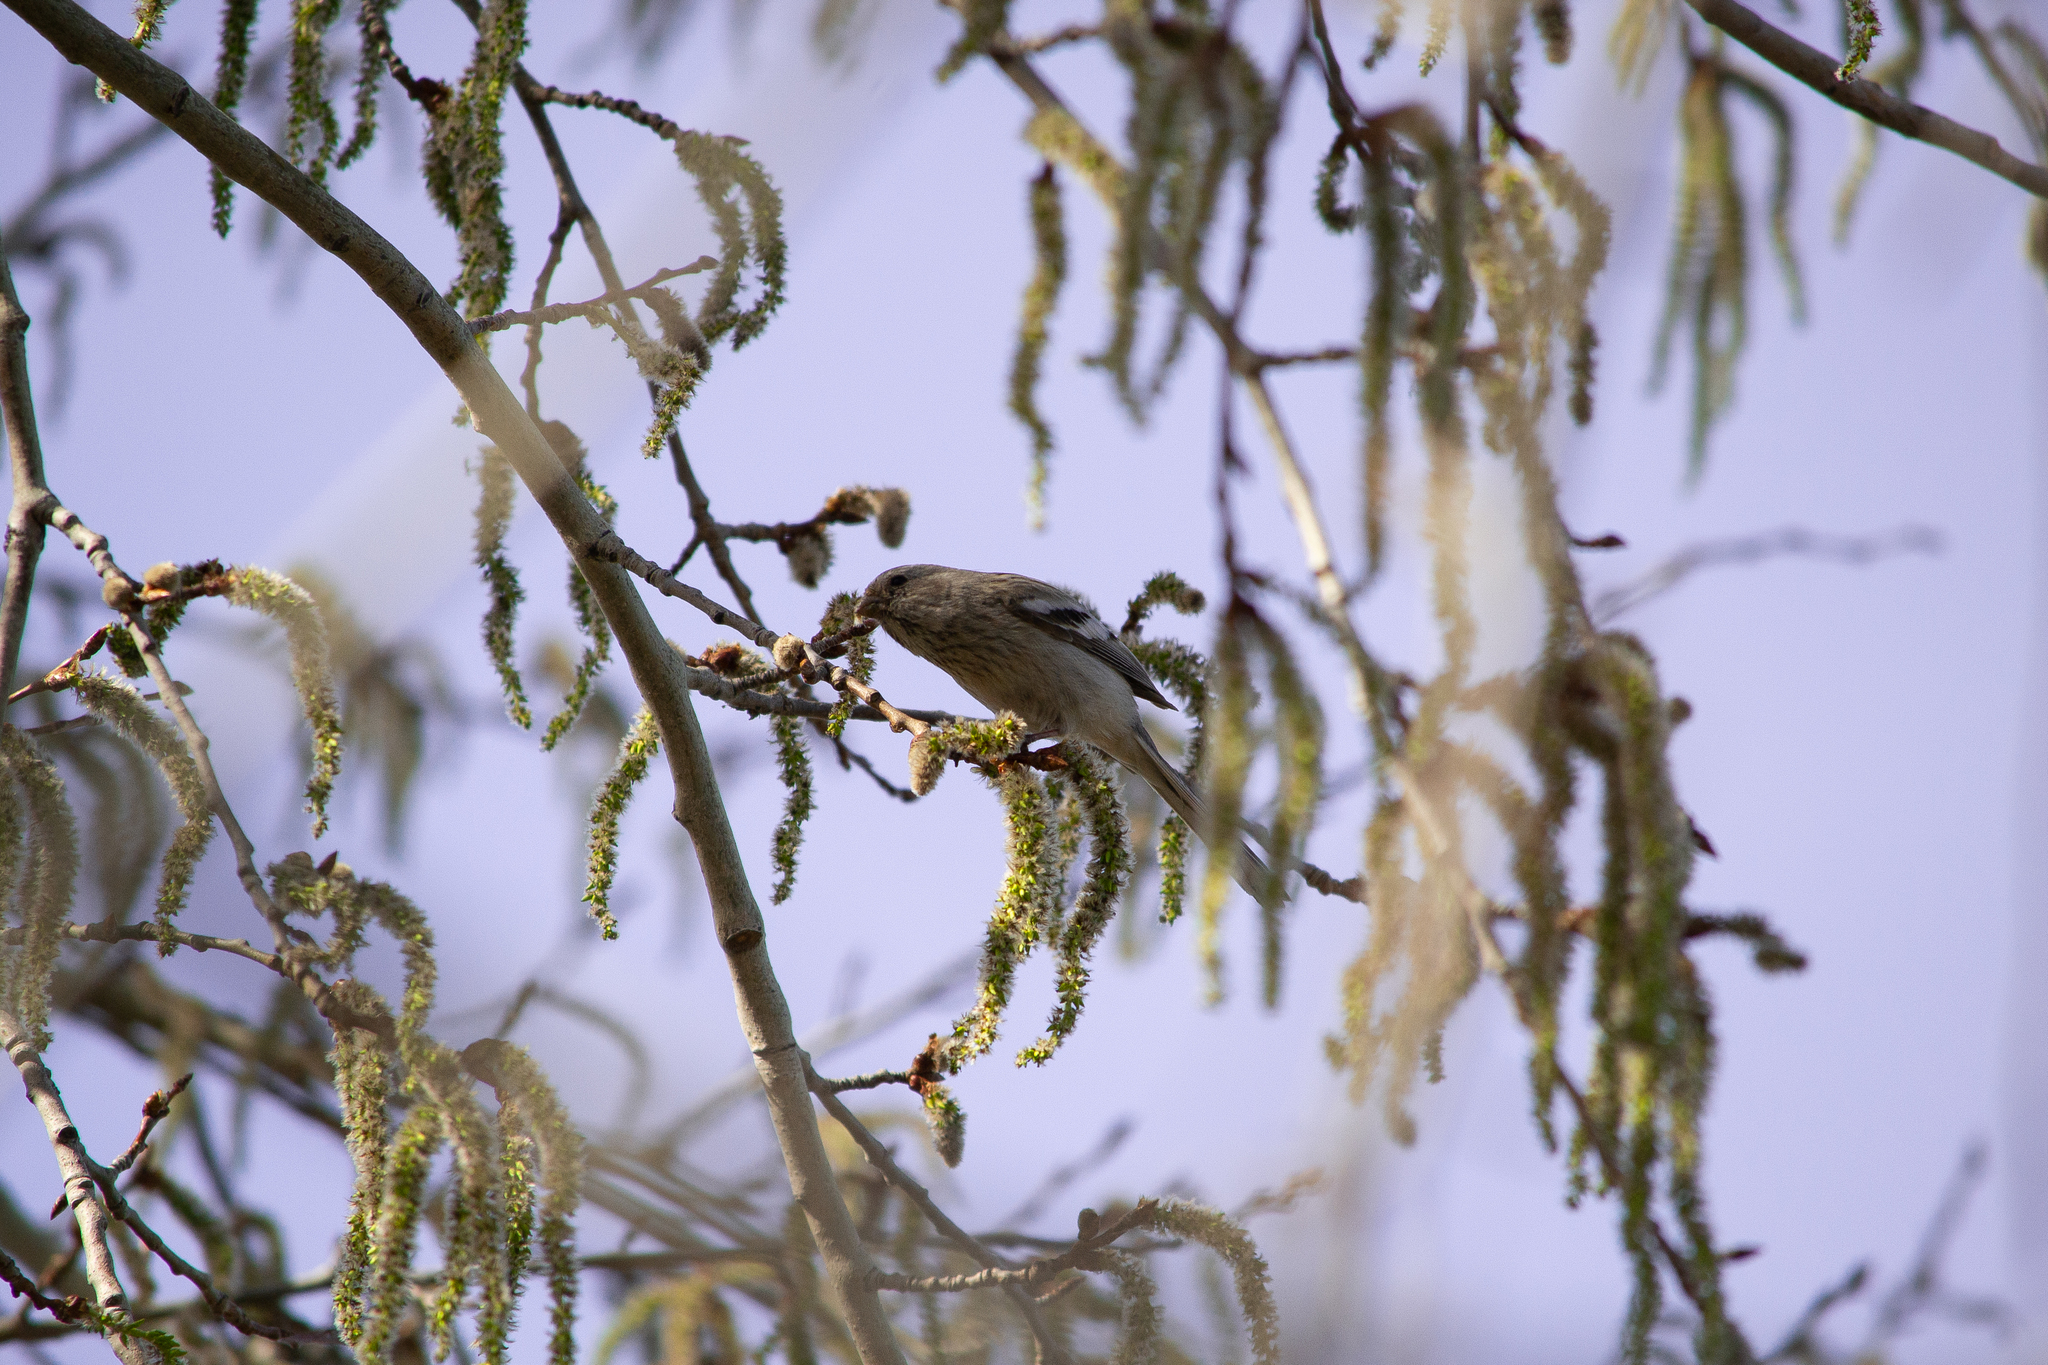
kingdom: Animalia
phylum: Chordata
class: Aves
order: Passeriformes
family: Fringillidae
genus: Carpodacus
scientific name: Carpodacus sibiricus
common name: Long-tailed rosefinch
